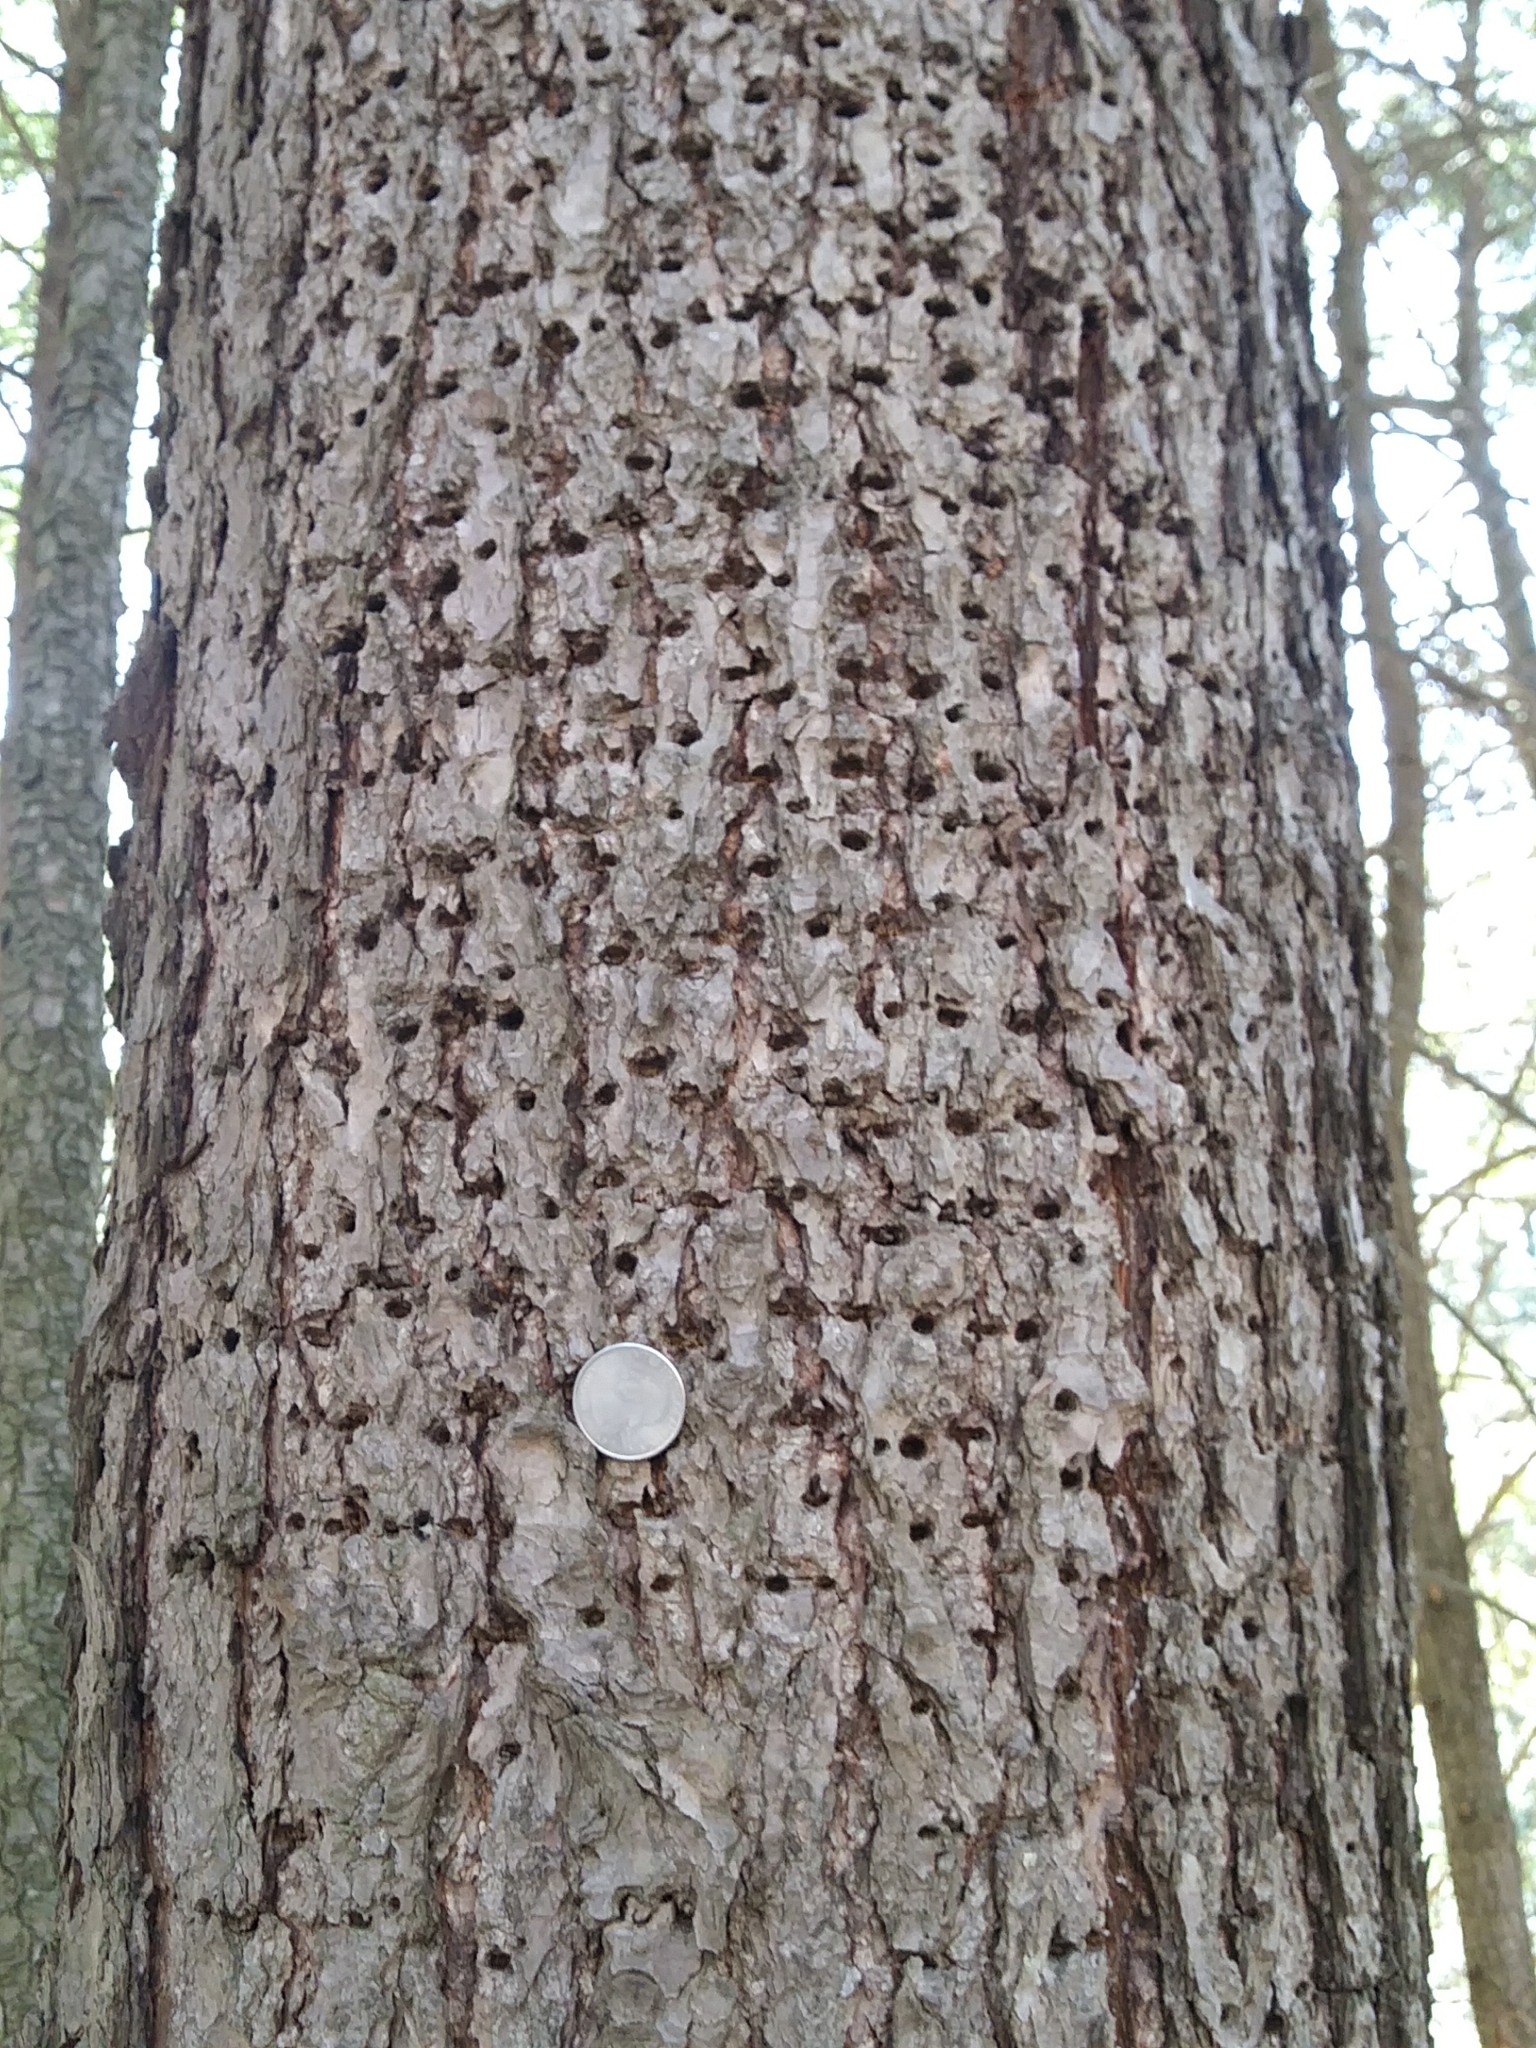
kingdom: Animalia
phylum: Chordata
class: Aves
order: Piciformes
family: Picidae
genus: Sphyrapicus
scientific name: Sphyrapicus varius
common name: Yellow-bellied sapsucker
